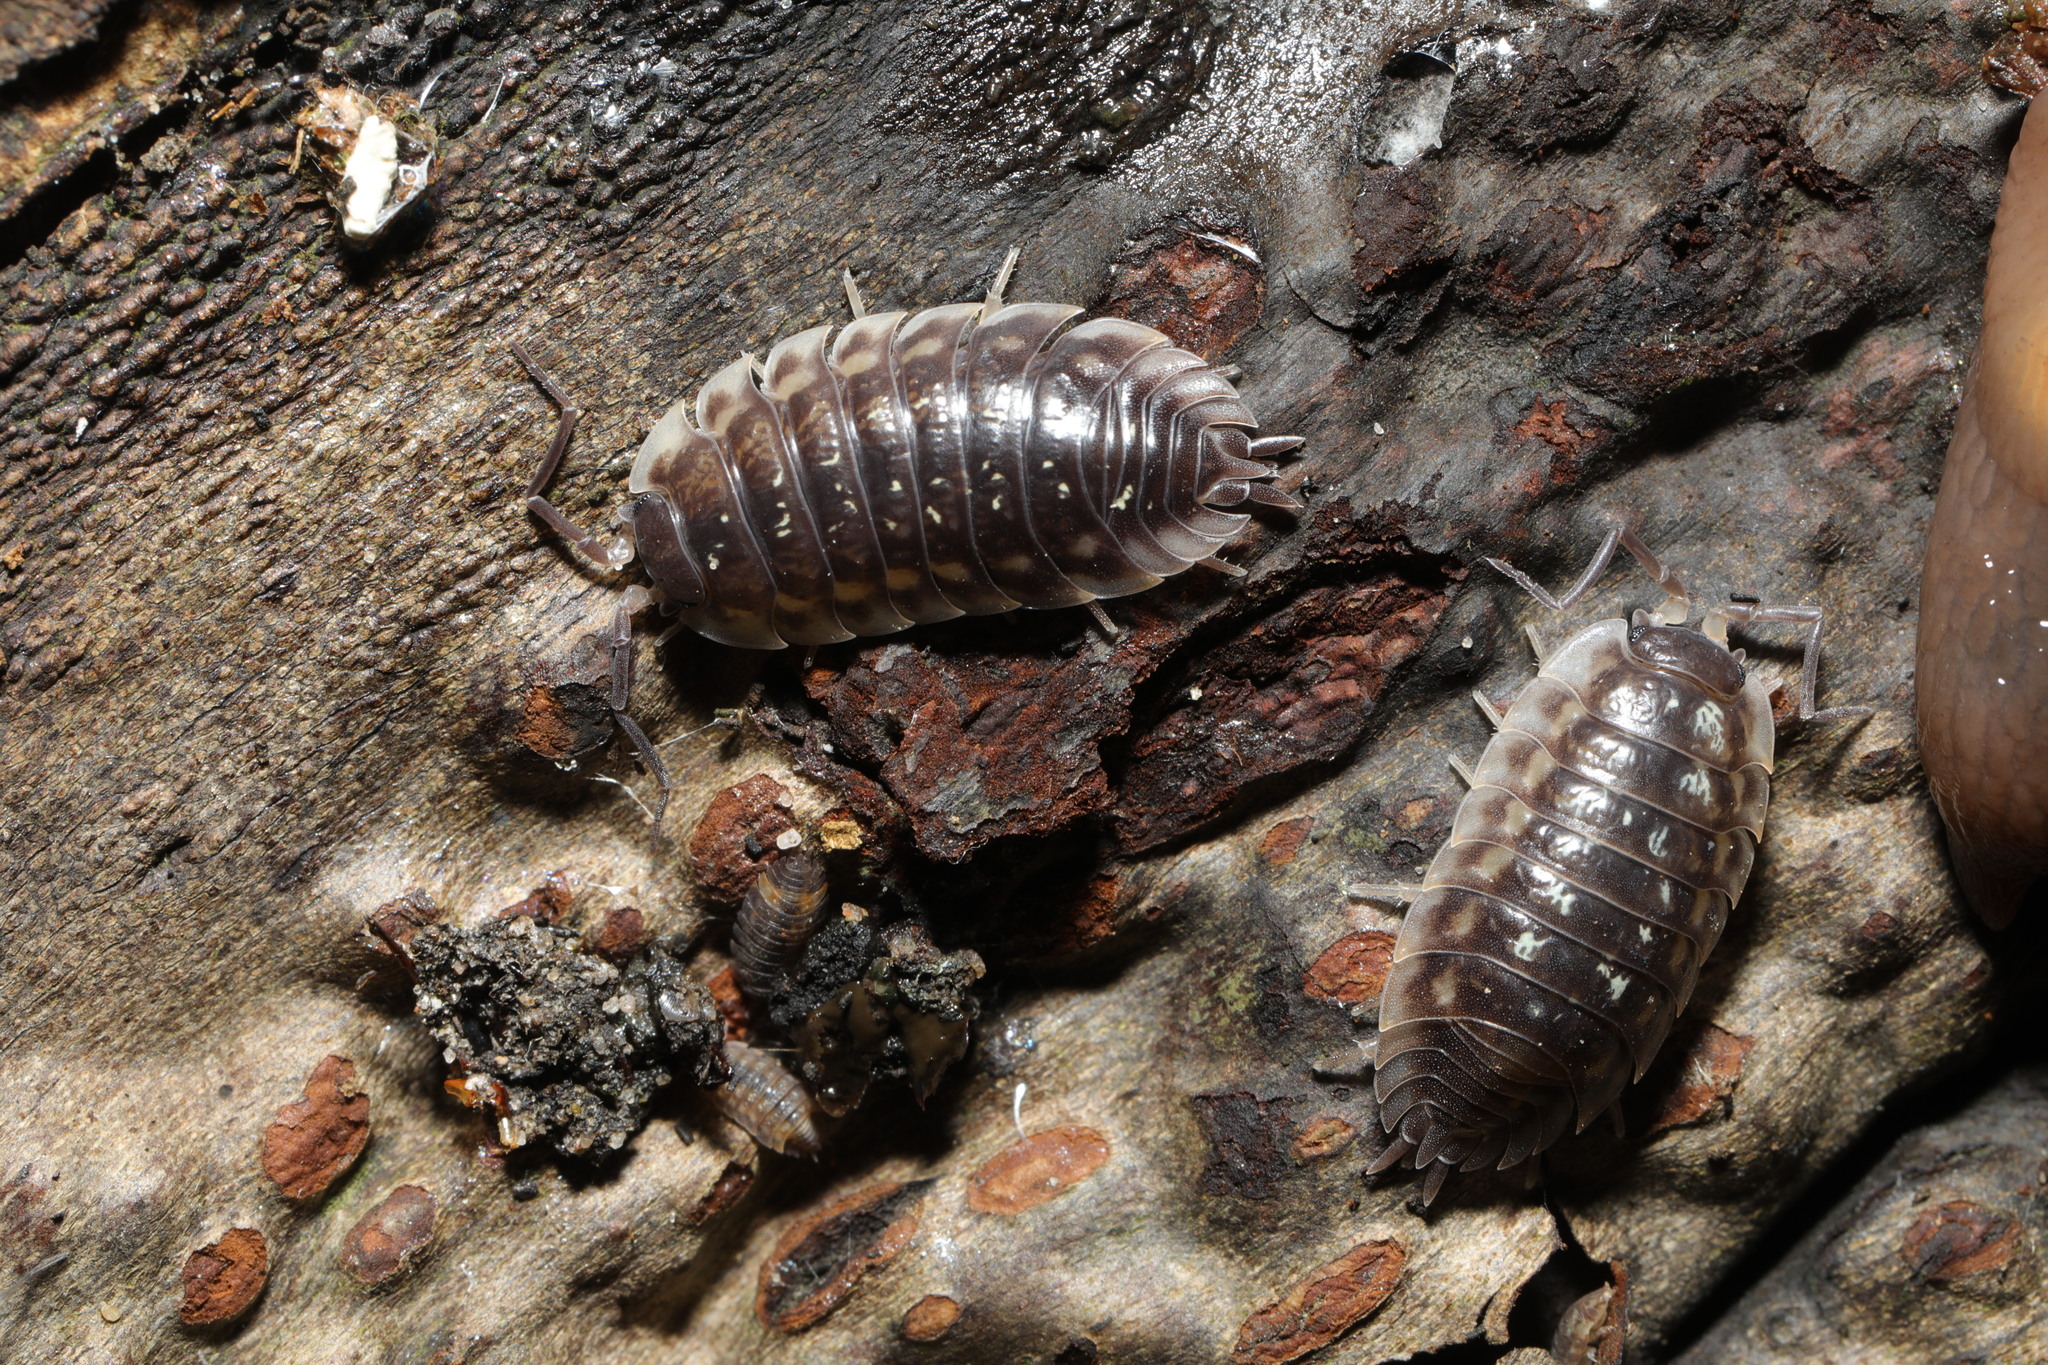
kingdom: Animalia
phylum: Arthropoda
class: Malacostraca
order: Isopoda
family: Oniscidae
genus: Oniscus
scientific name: Oniscus asellus
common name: Common shiny woodlouse
